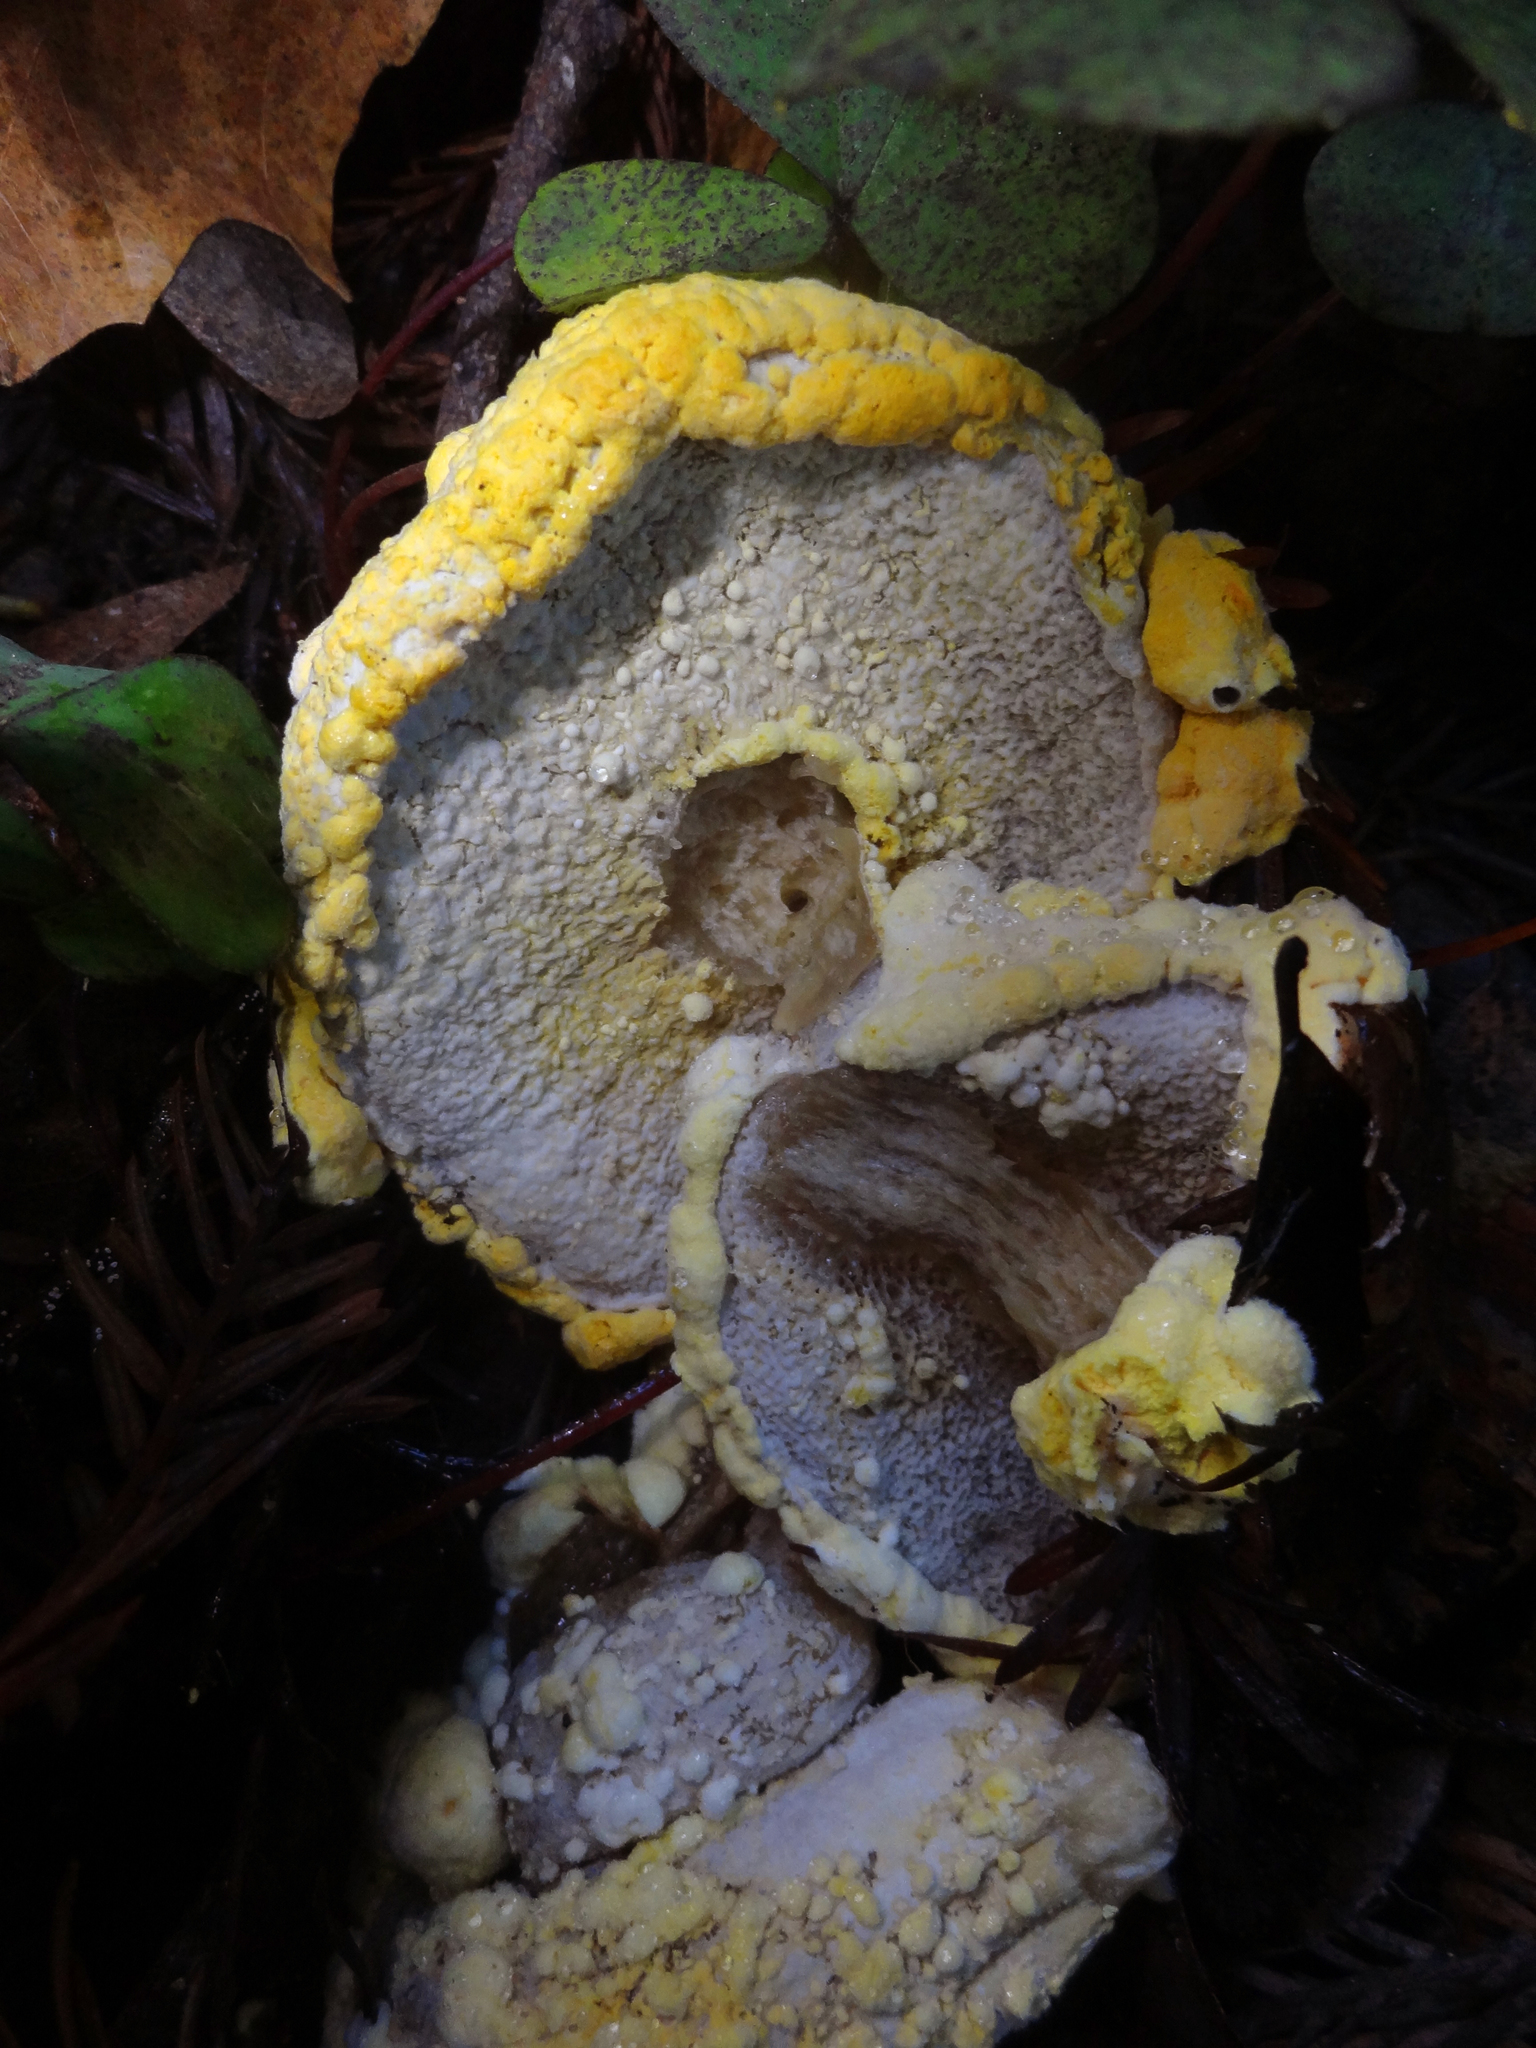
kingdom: Fungi
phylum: Ascomycota
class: Sordariomycetes
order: Hypocreales
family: Hypocreaceae
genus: Hypomyces
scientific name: Hypomyces microspermus
